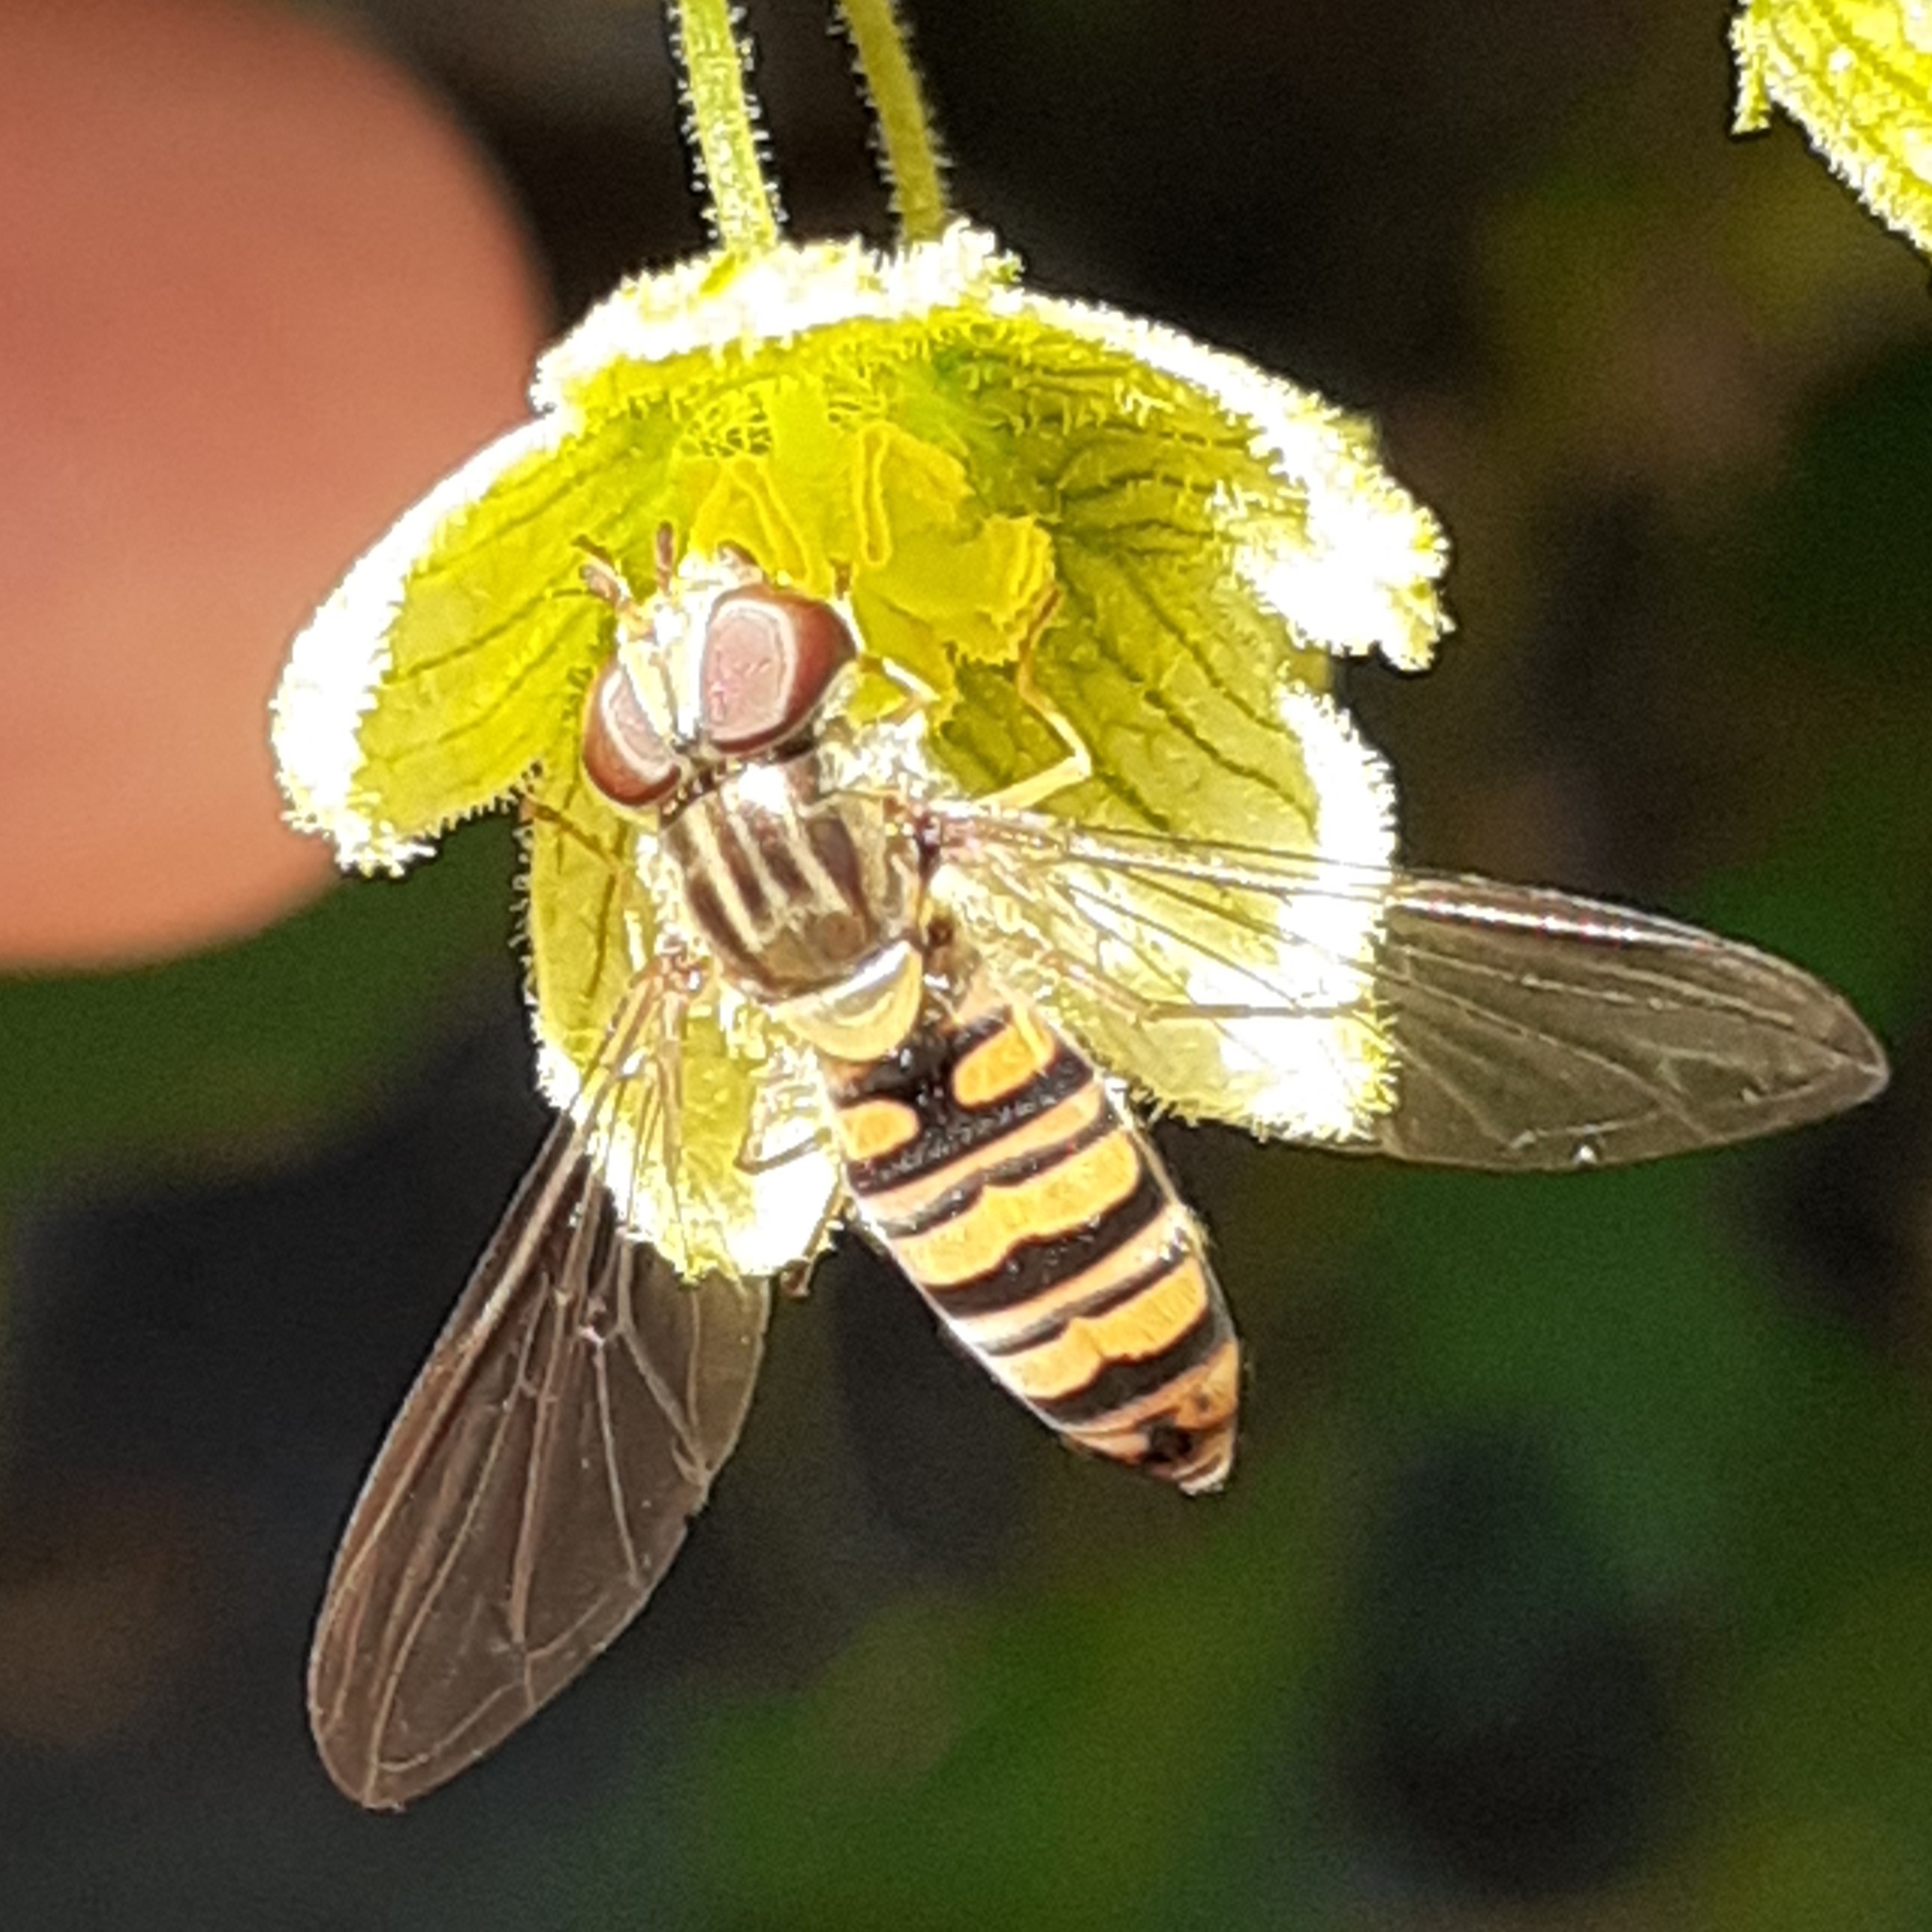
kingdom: Animalia
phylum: Arthropoda
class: Insecta
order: Diptera
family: Syrphidae
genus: Episyrphus
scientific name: Episyrphus balteatus
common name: Marmalade hoverfly
